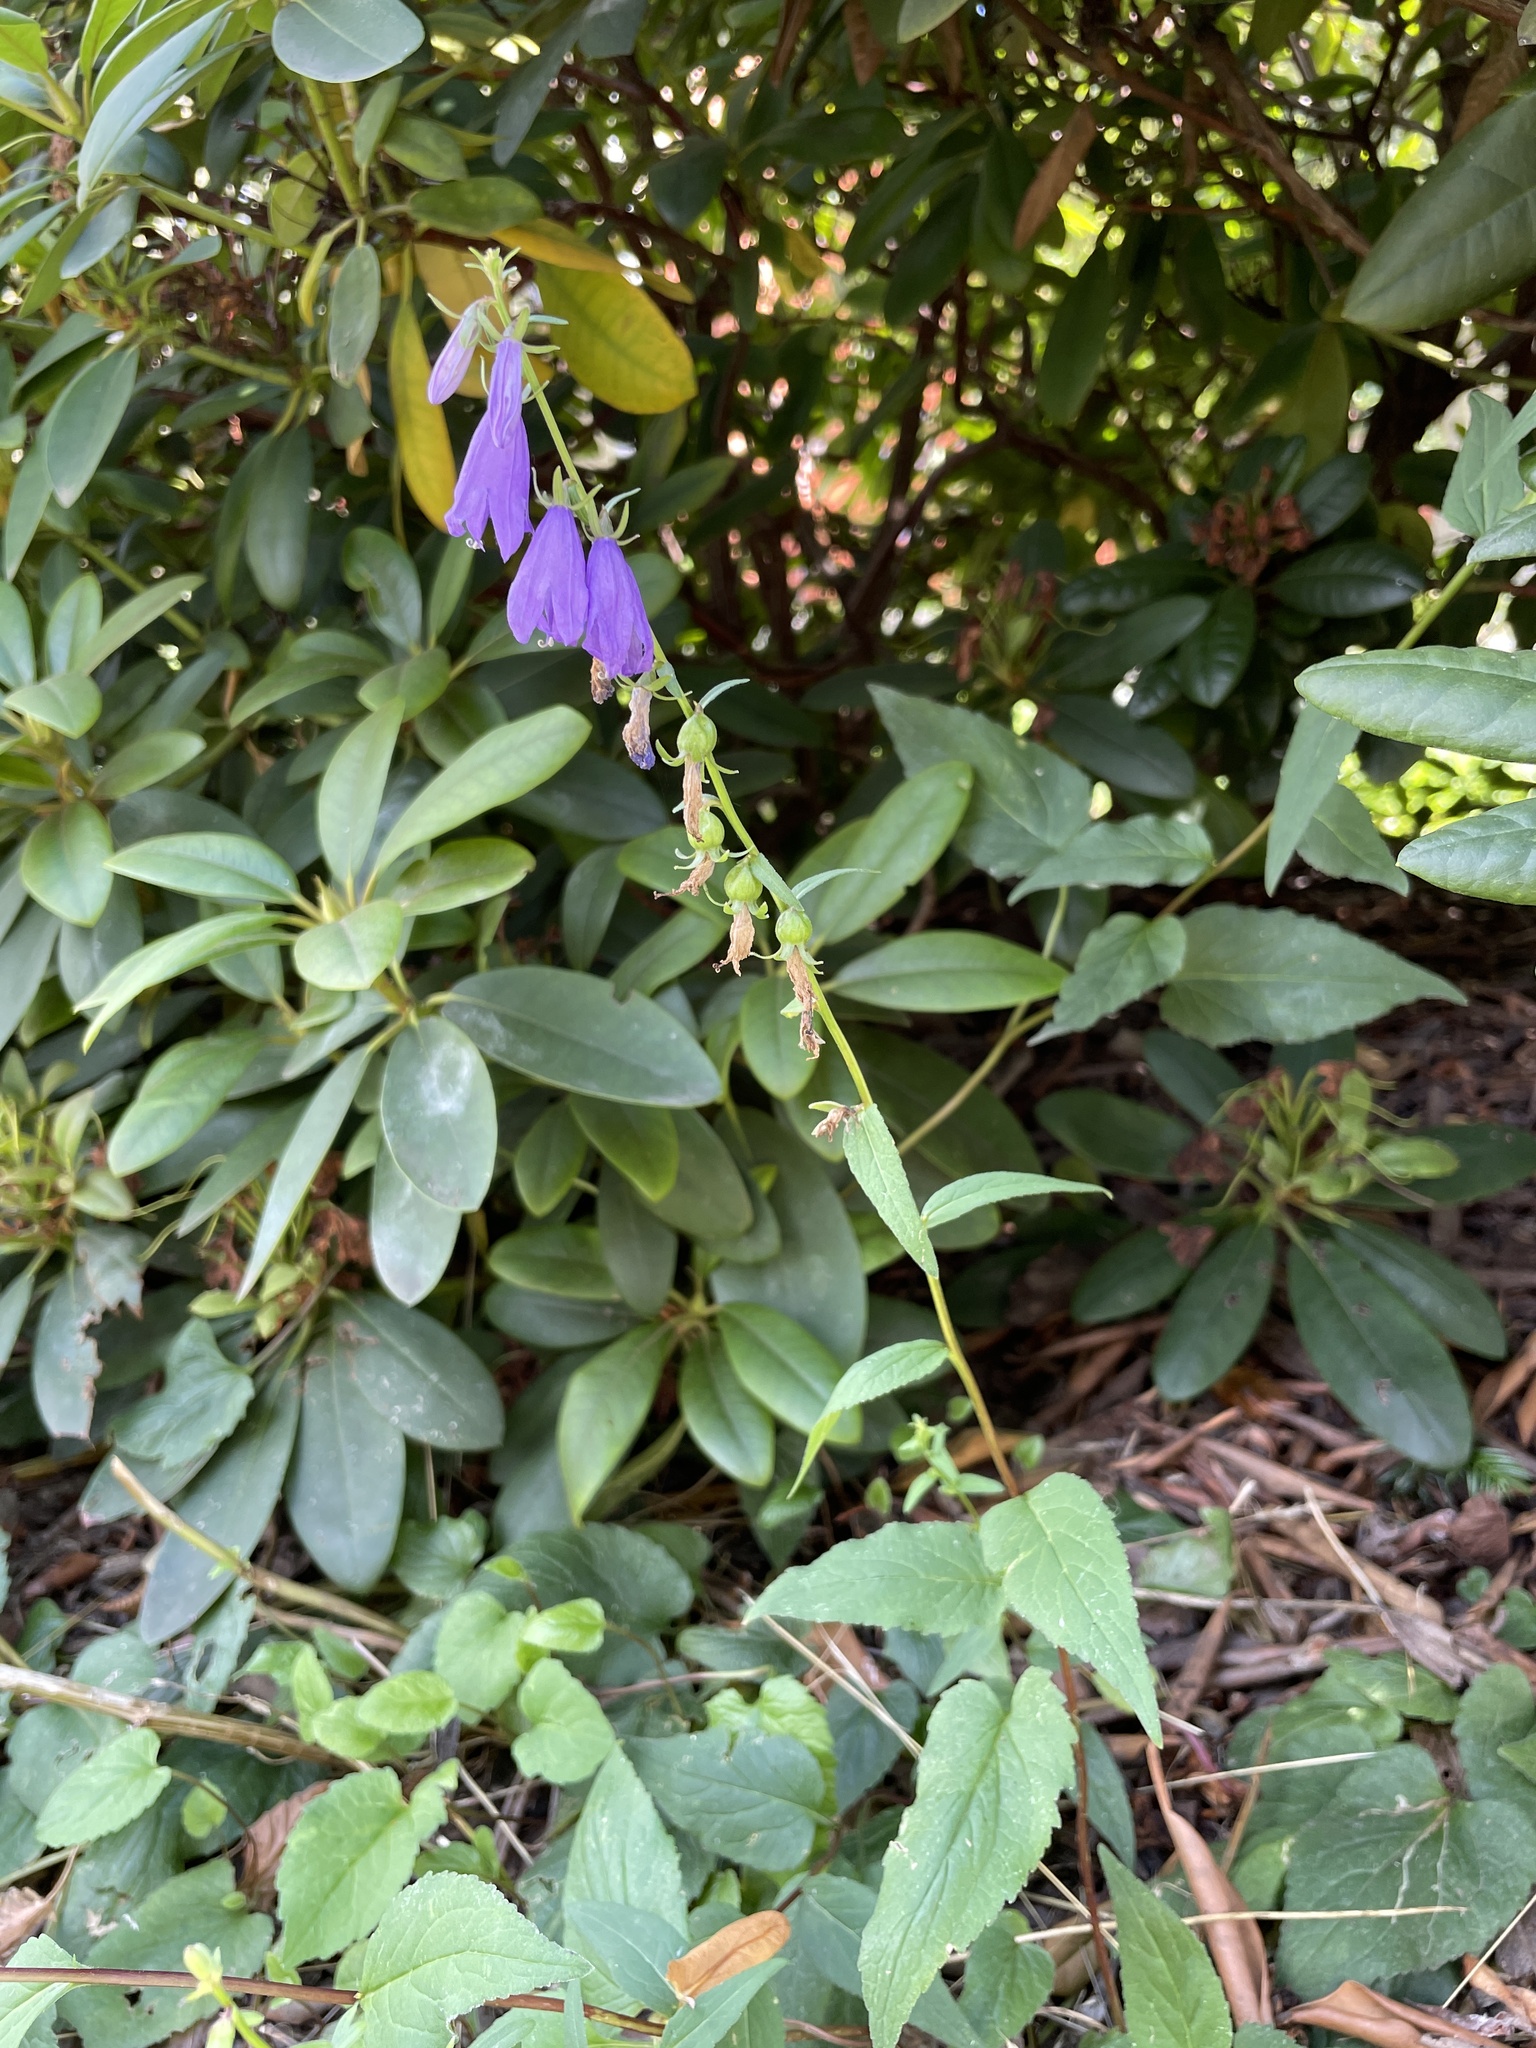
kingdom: Plantae
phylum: Tracheophyta
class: Magnoliopsida
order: Asterales
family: Campanulaceae
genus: Campanula
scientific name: Campanula rapunculoides
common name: Creeping bellflower
